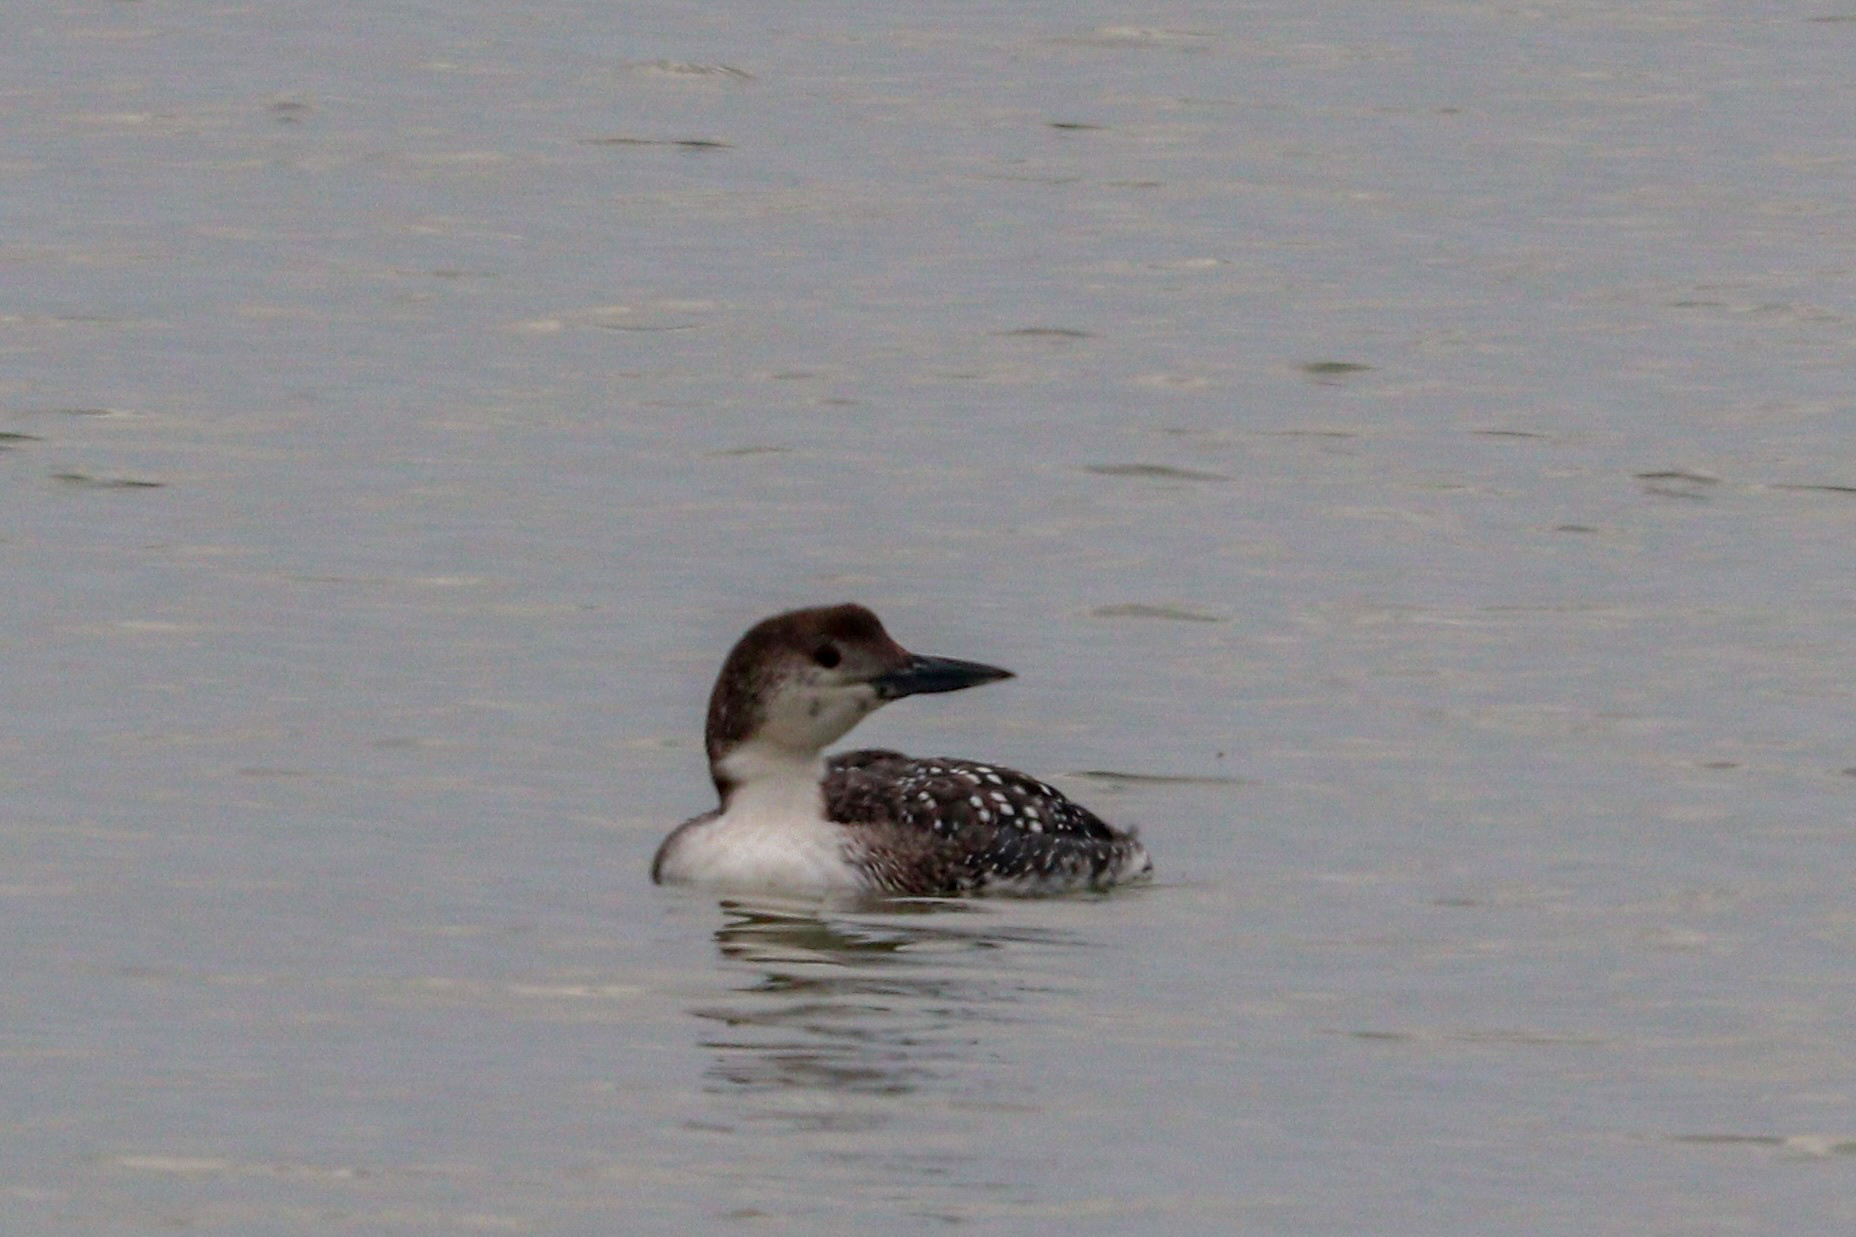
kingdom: Animalia
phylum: Chordata
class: Aves
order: Gaviiformes
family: Gaviidae
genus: Gavia
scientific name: Gavia immer
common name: Common loon
